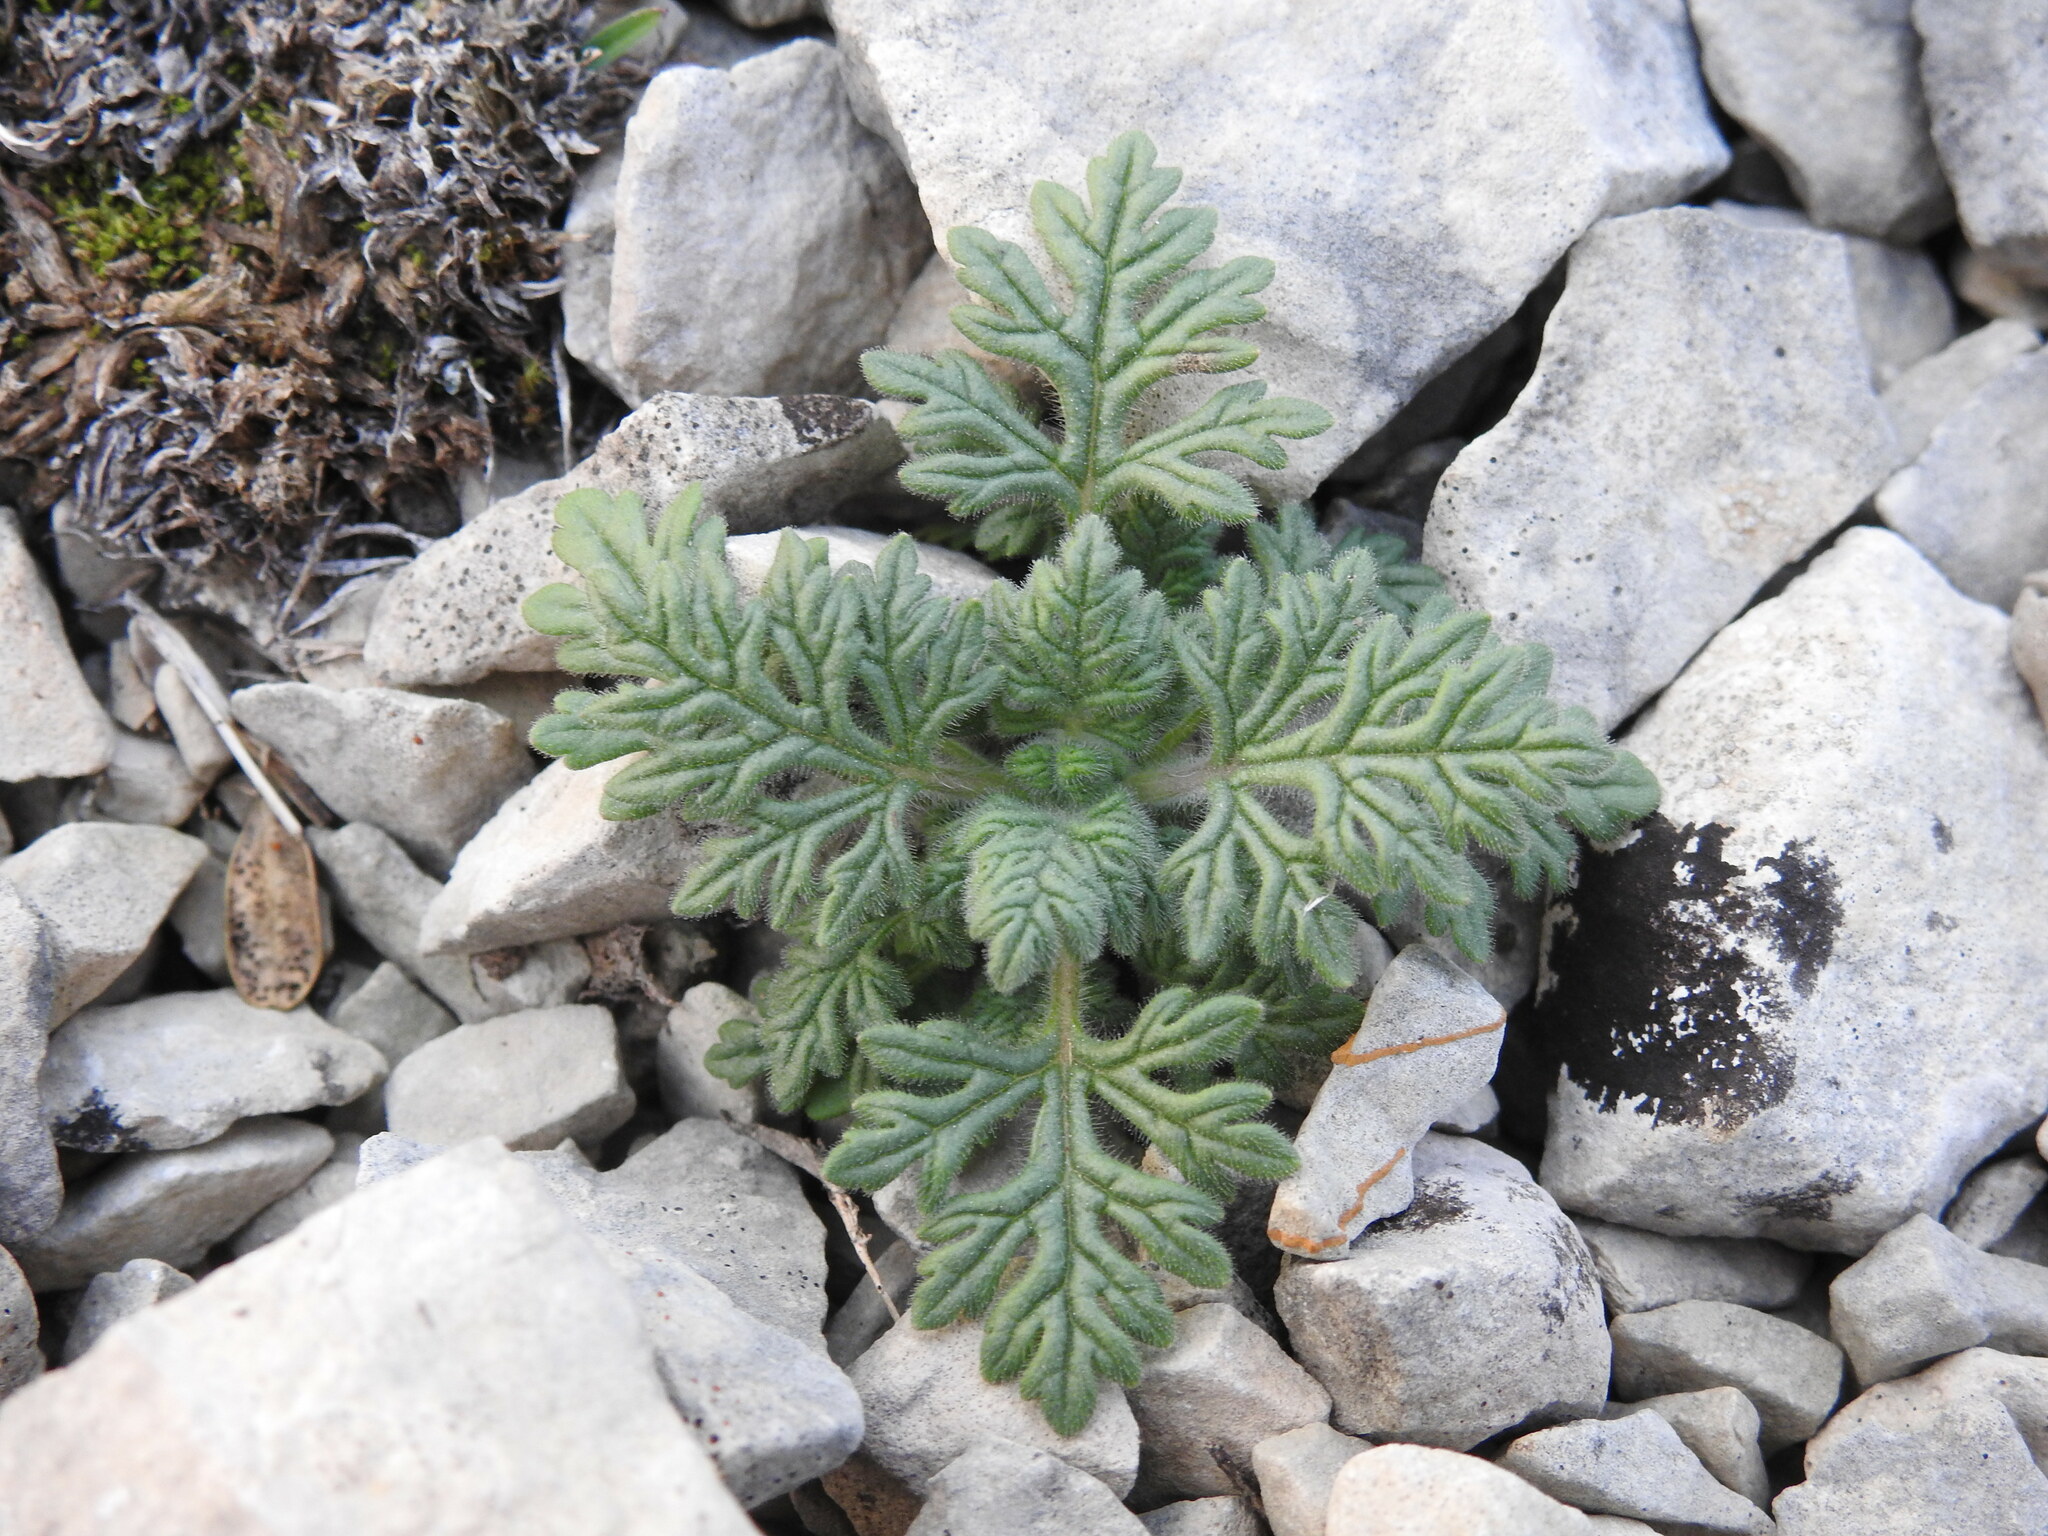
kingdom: Plantae
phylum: Tracheophyta
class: Magnoliopsida
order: Lamiales
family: Lamiaceae
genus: Teucrium
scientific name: Teucrium botrys
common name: Cut-leaved germander
